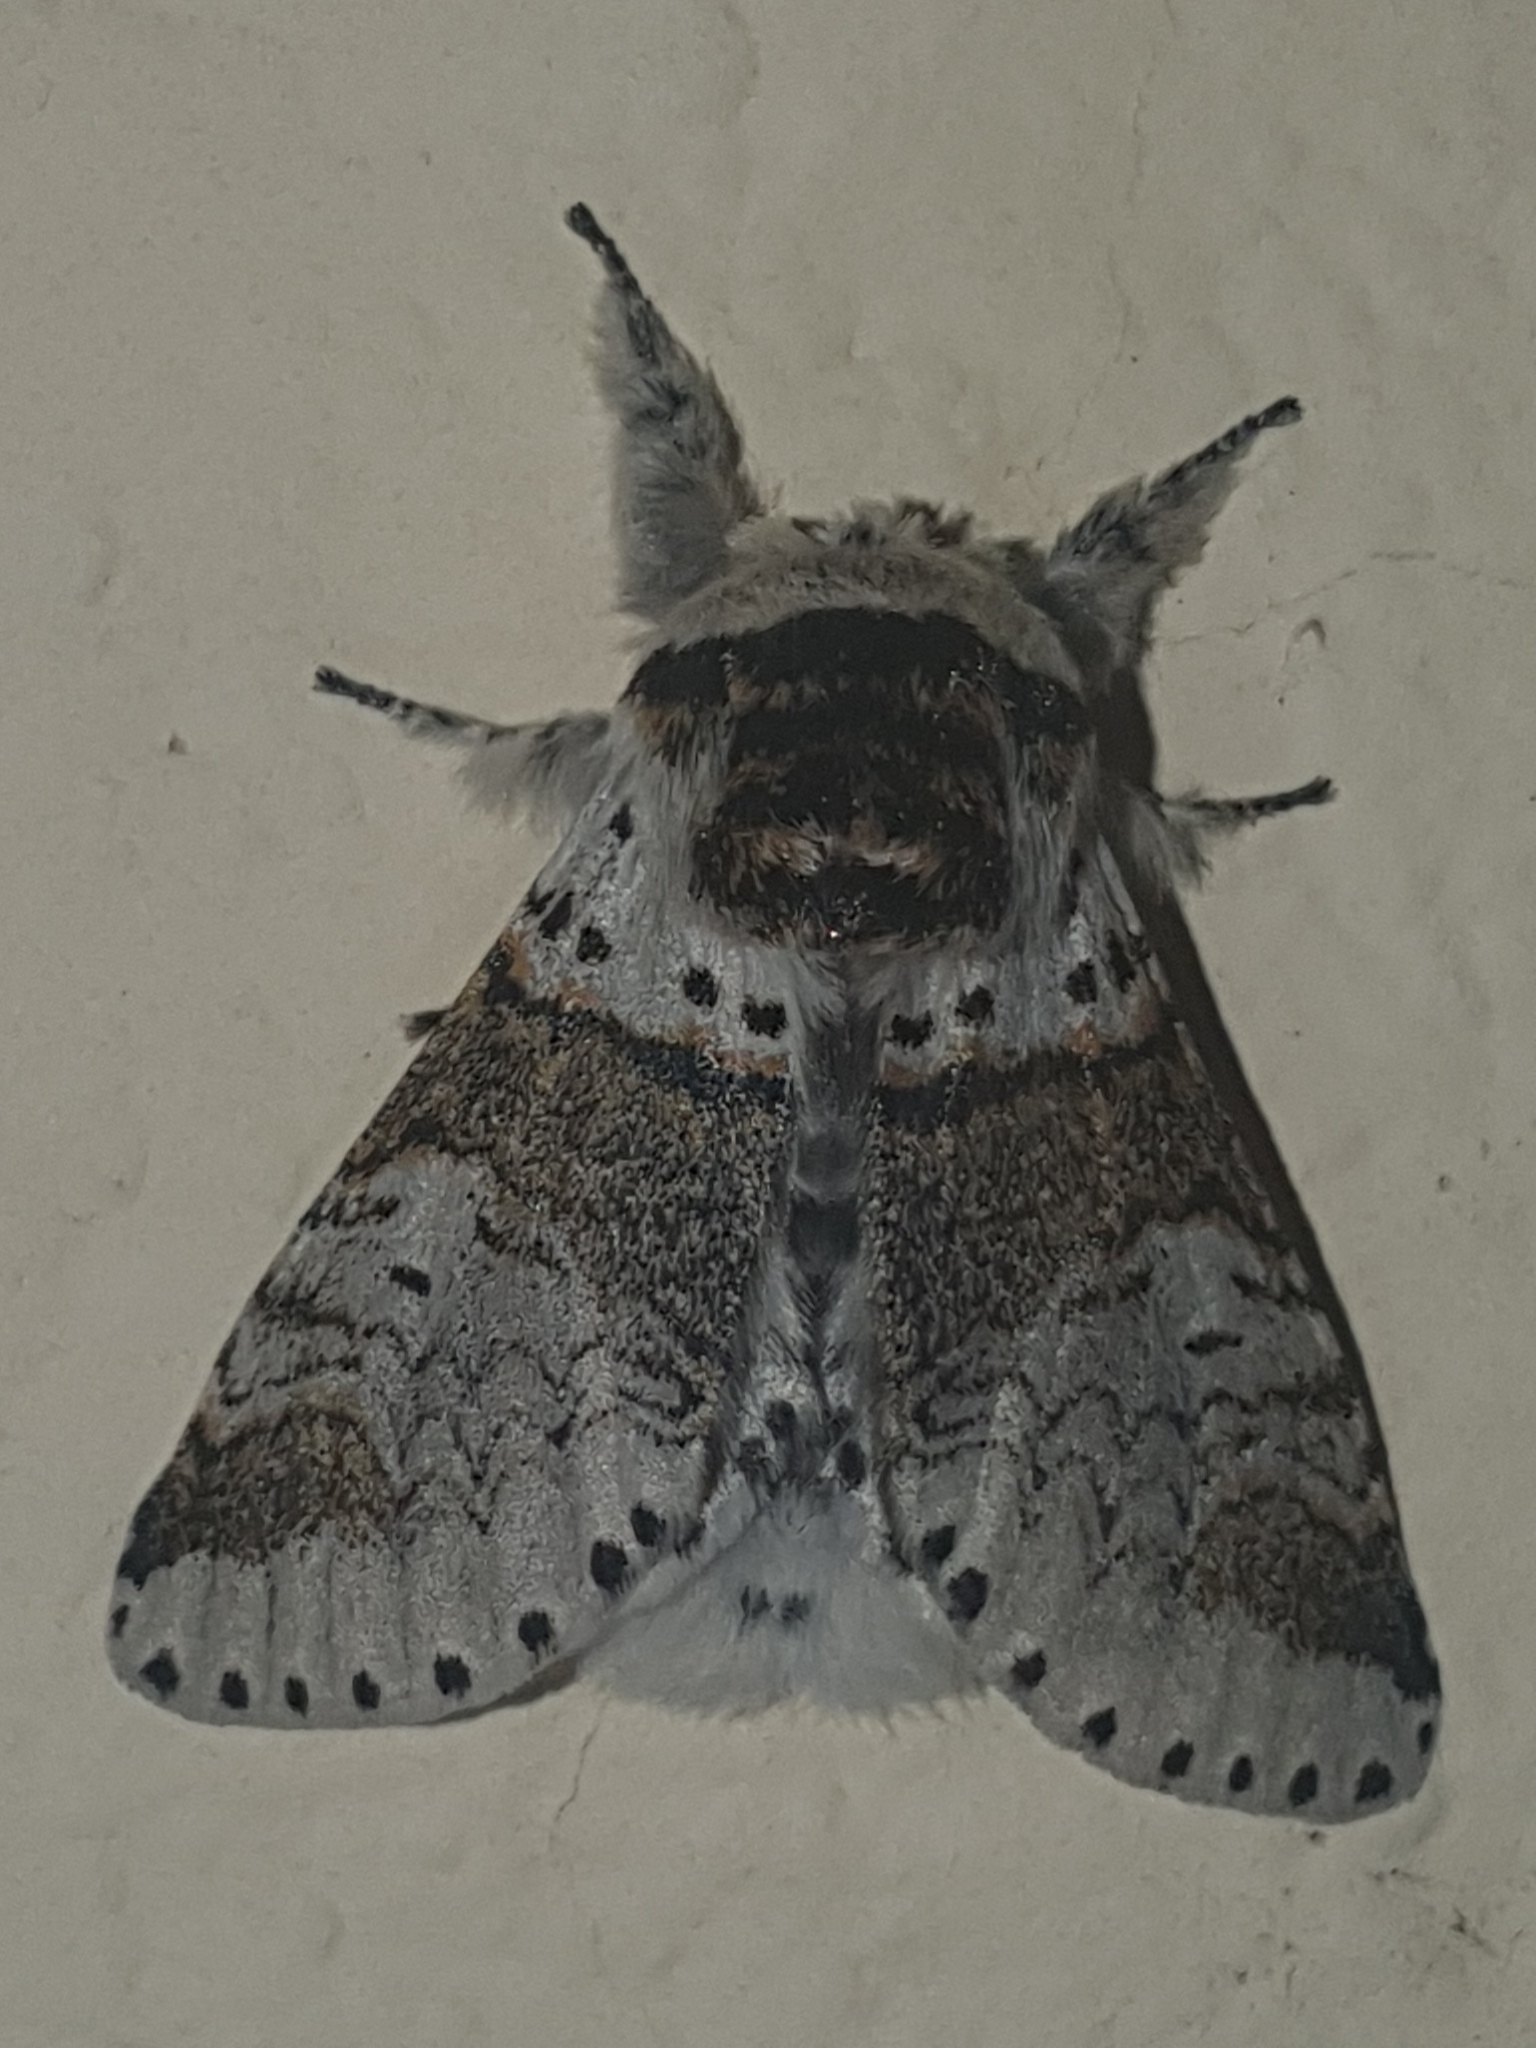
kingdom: Animalia
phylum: Arthropoda
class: Insecta
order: Lepidoptera
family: Notodontidae
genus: Furcula
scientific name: Furcula furcula
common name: Sallow kitten
